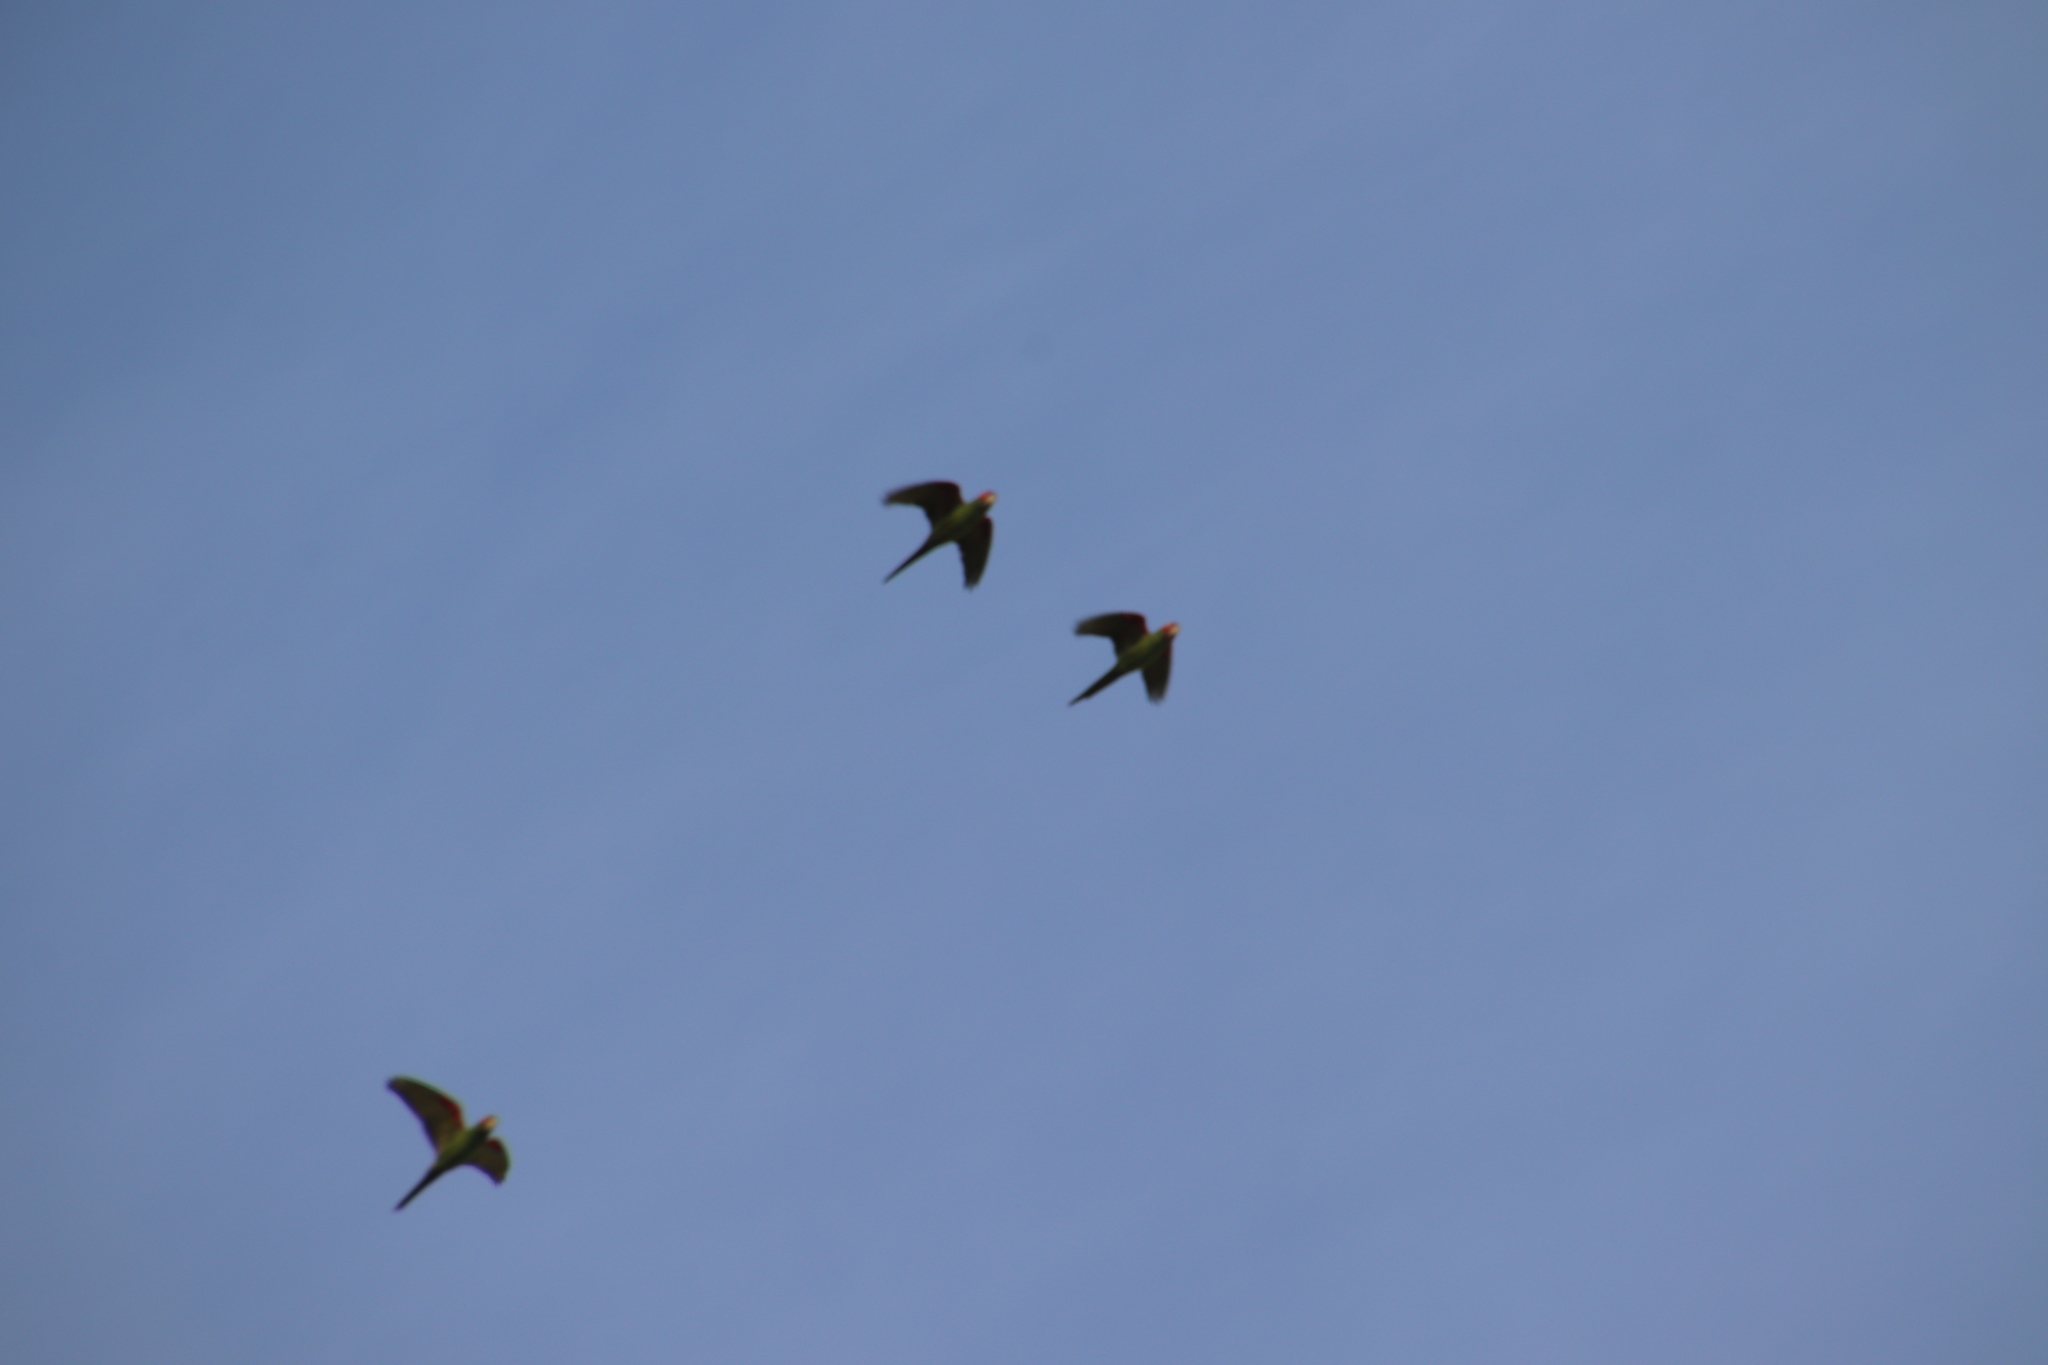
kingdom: Animalia
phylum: Chordata
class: Aves
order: Psittaciformes
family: Psittacidae
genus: Aratinga
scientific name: Aratinga erythrogenys
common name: Red-masked parakeet
